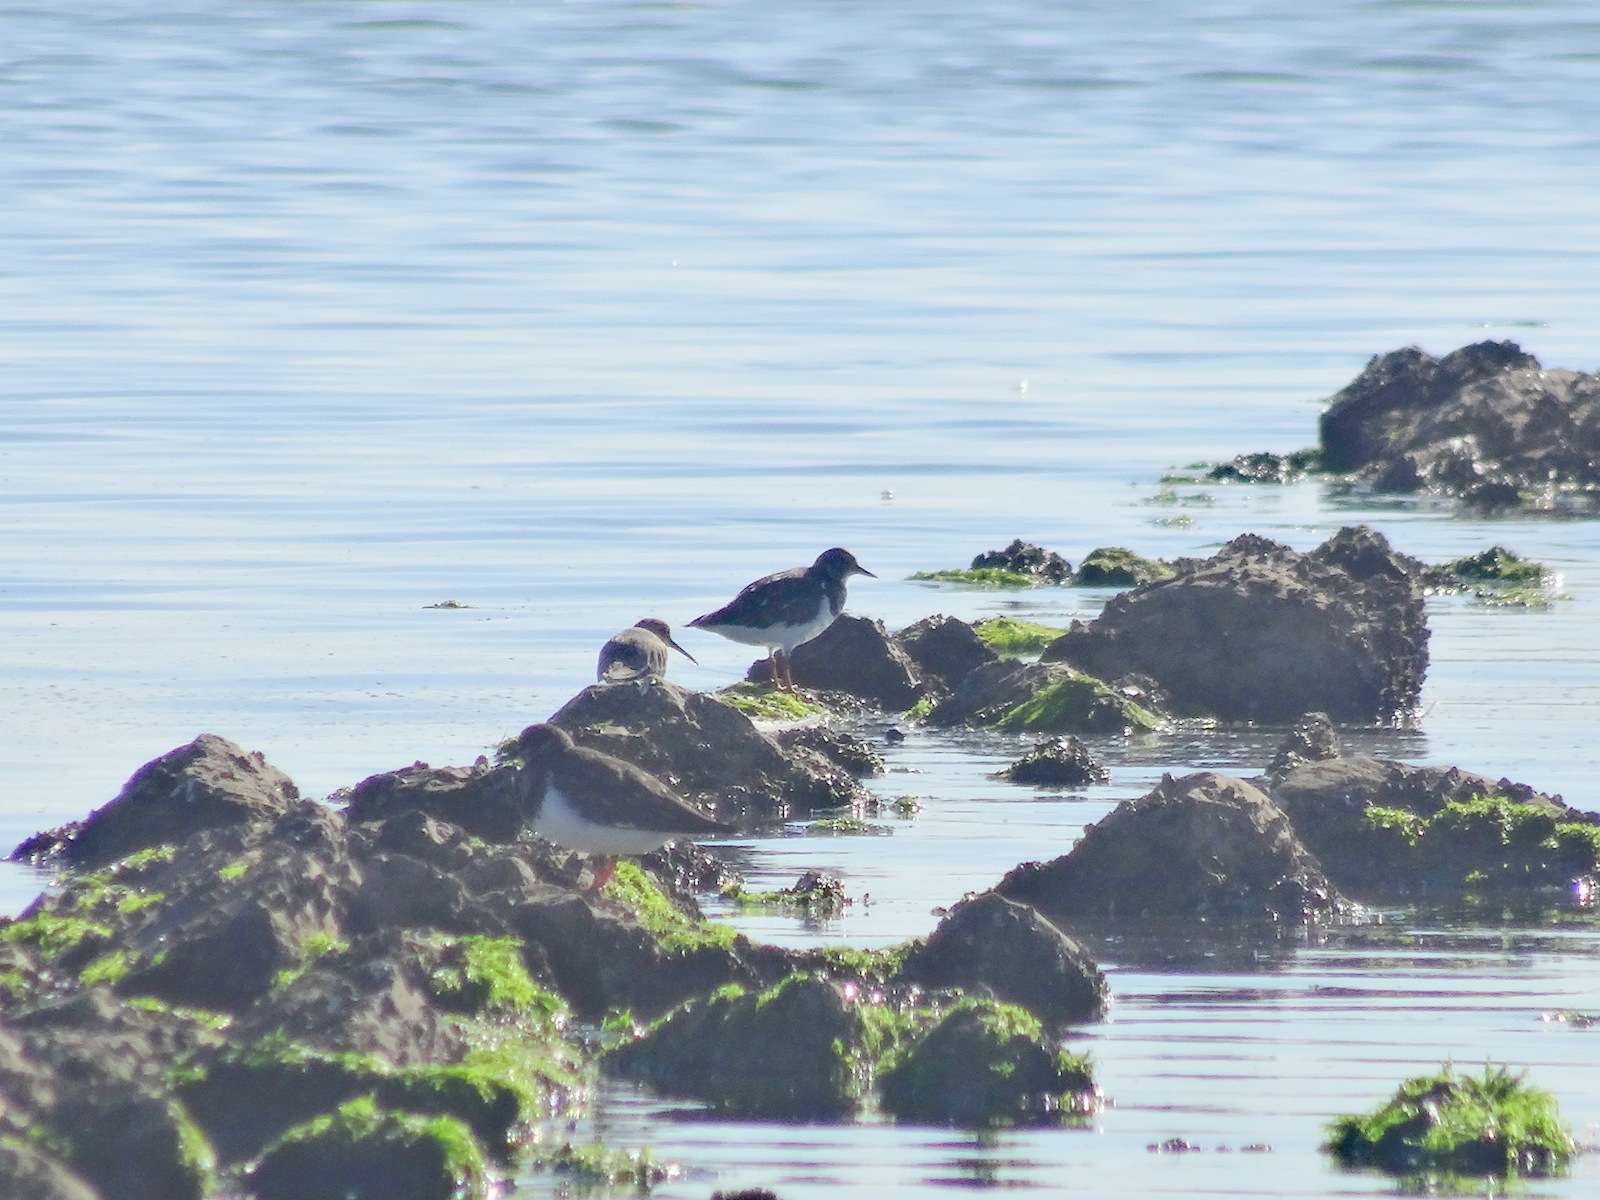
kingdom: Animalia
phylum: Chordata
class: Aves
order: Charadriiformes
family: Scolopacidae
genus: Arenaria
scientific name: Arenaria interpres
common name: Ruddy turnstone
